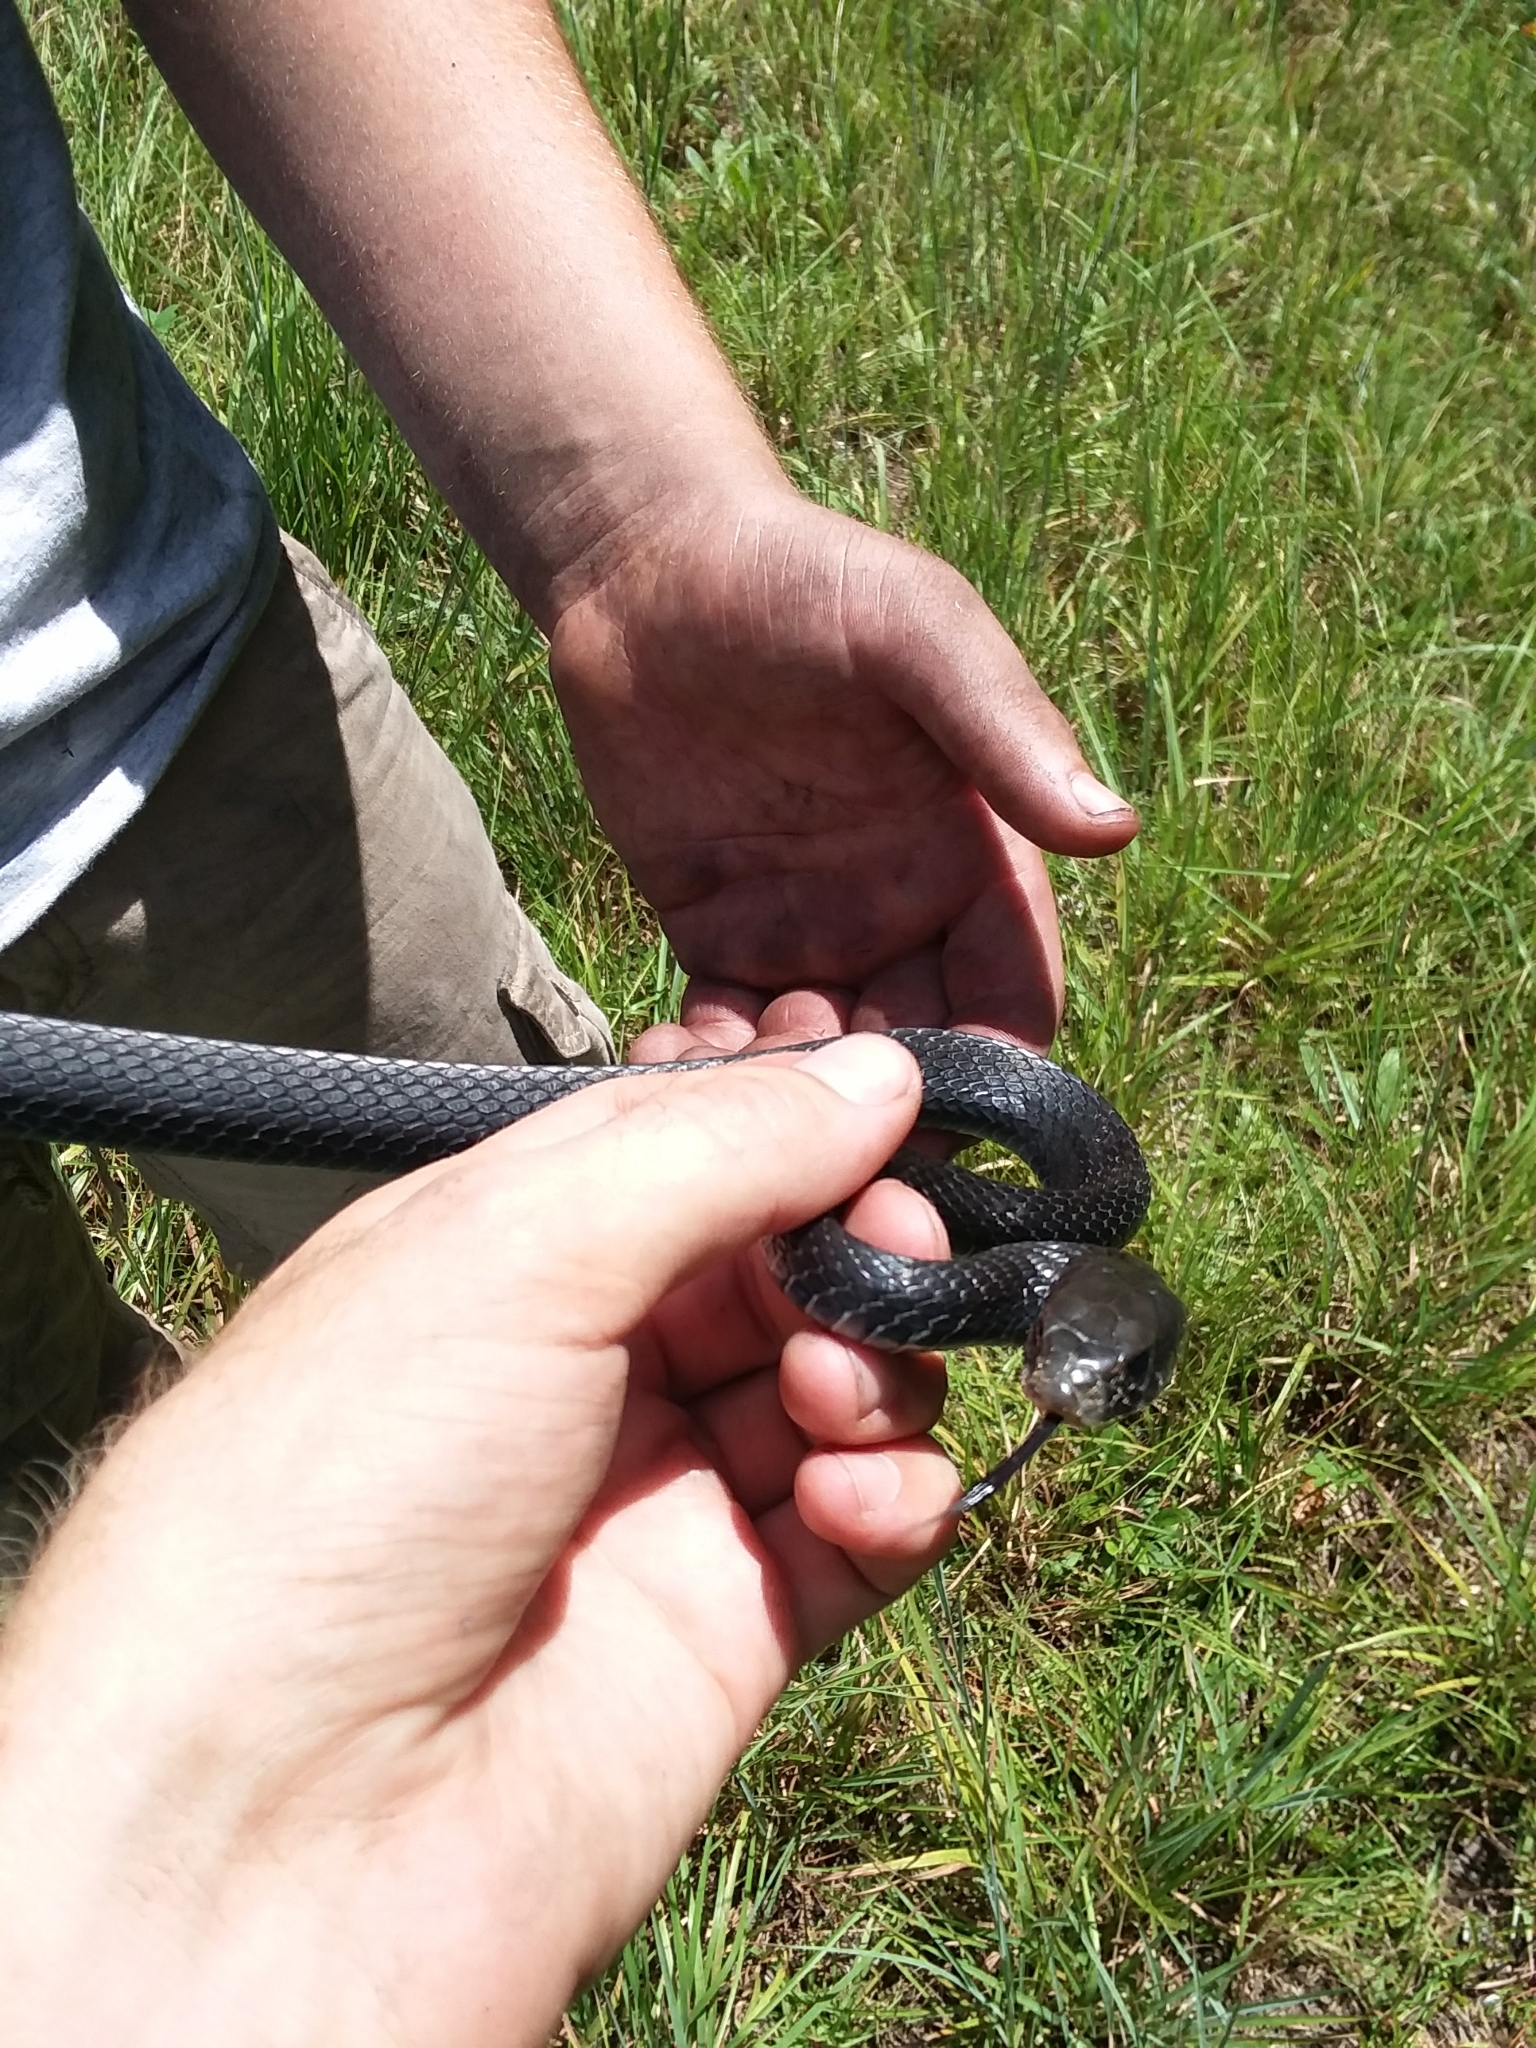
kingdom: Animalia
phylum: Chordata
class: Squamata
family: Colubridae
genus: Coluber
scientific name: Coluber constrictor
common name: Eastern racer
